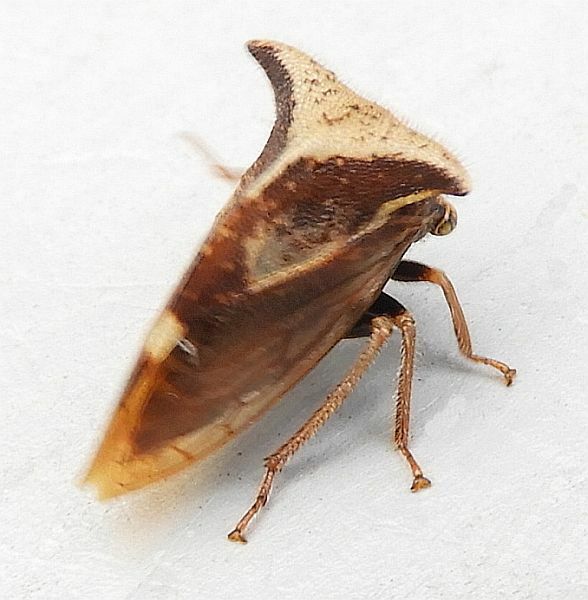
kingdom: Animalia
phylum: Arthropoda
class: Insecta
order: Hemiptera
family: Membracidae
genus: Stictocephala
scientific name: Stictocephala diceros
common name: Two-horned treehopper
